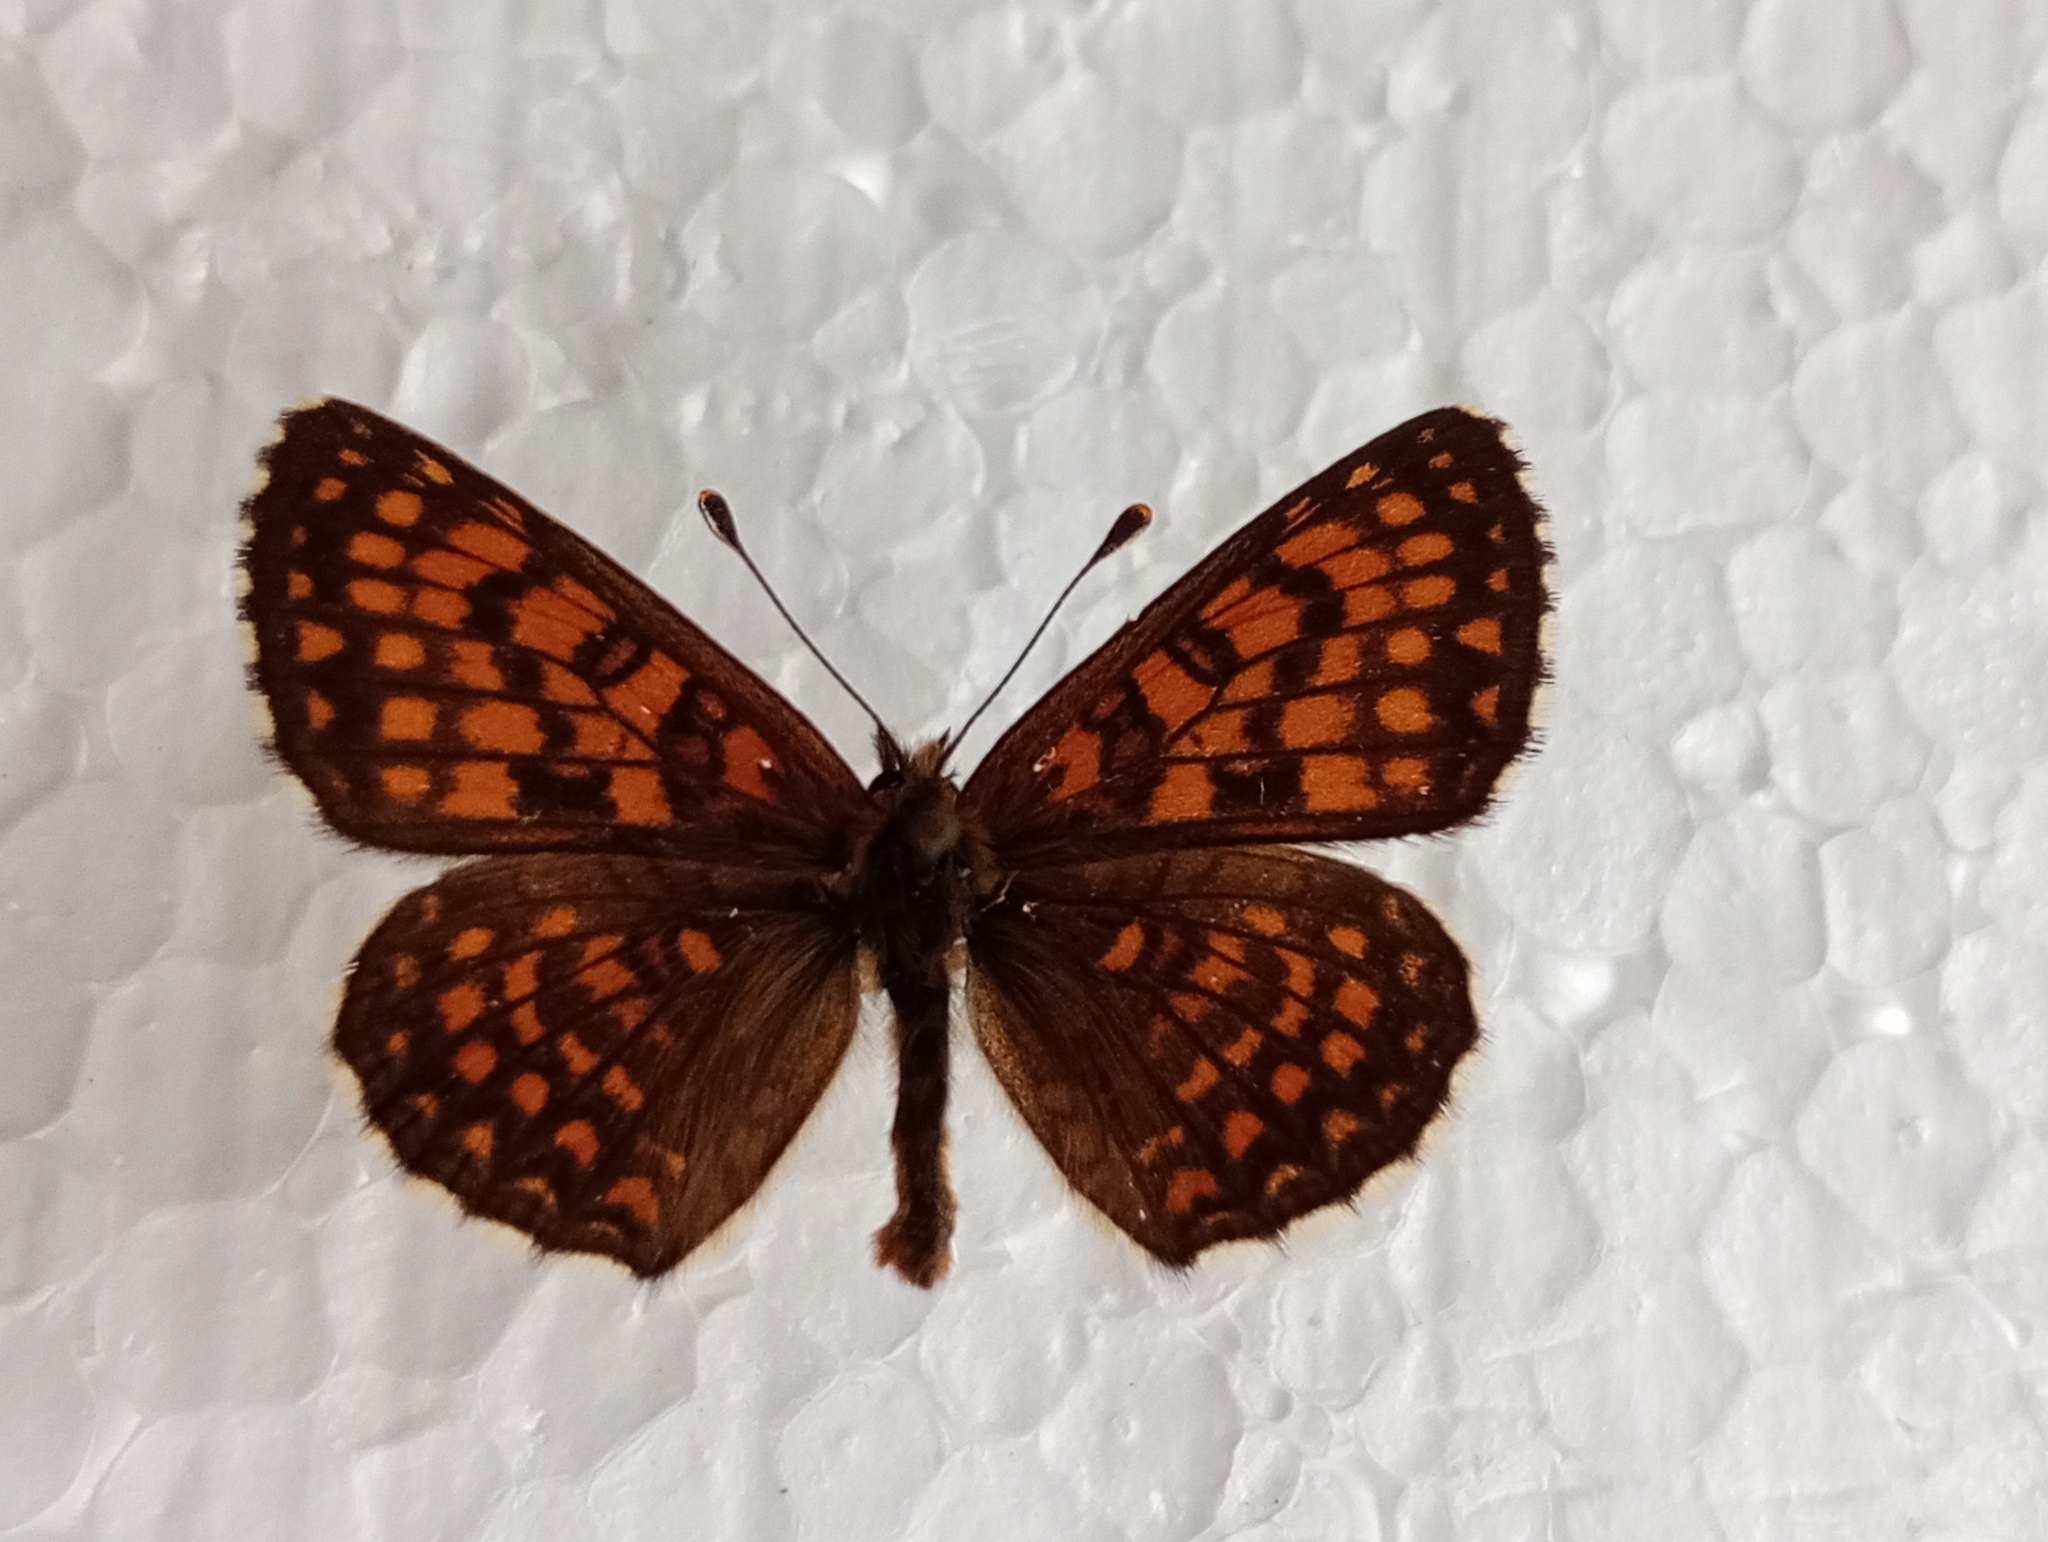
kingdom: Animalia
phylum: Arthropoda
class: Insecta
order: Lepidoptera
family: Nymphalidae
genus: Melitaea
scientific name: Melitaea athalia
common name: Heath fritillary
